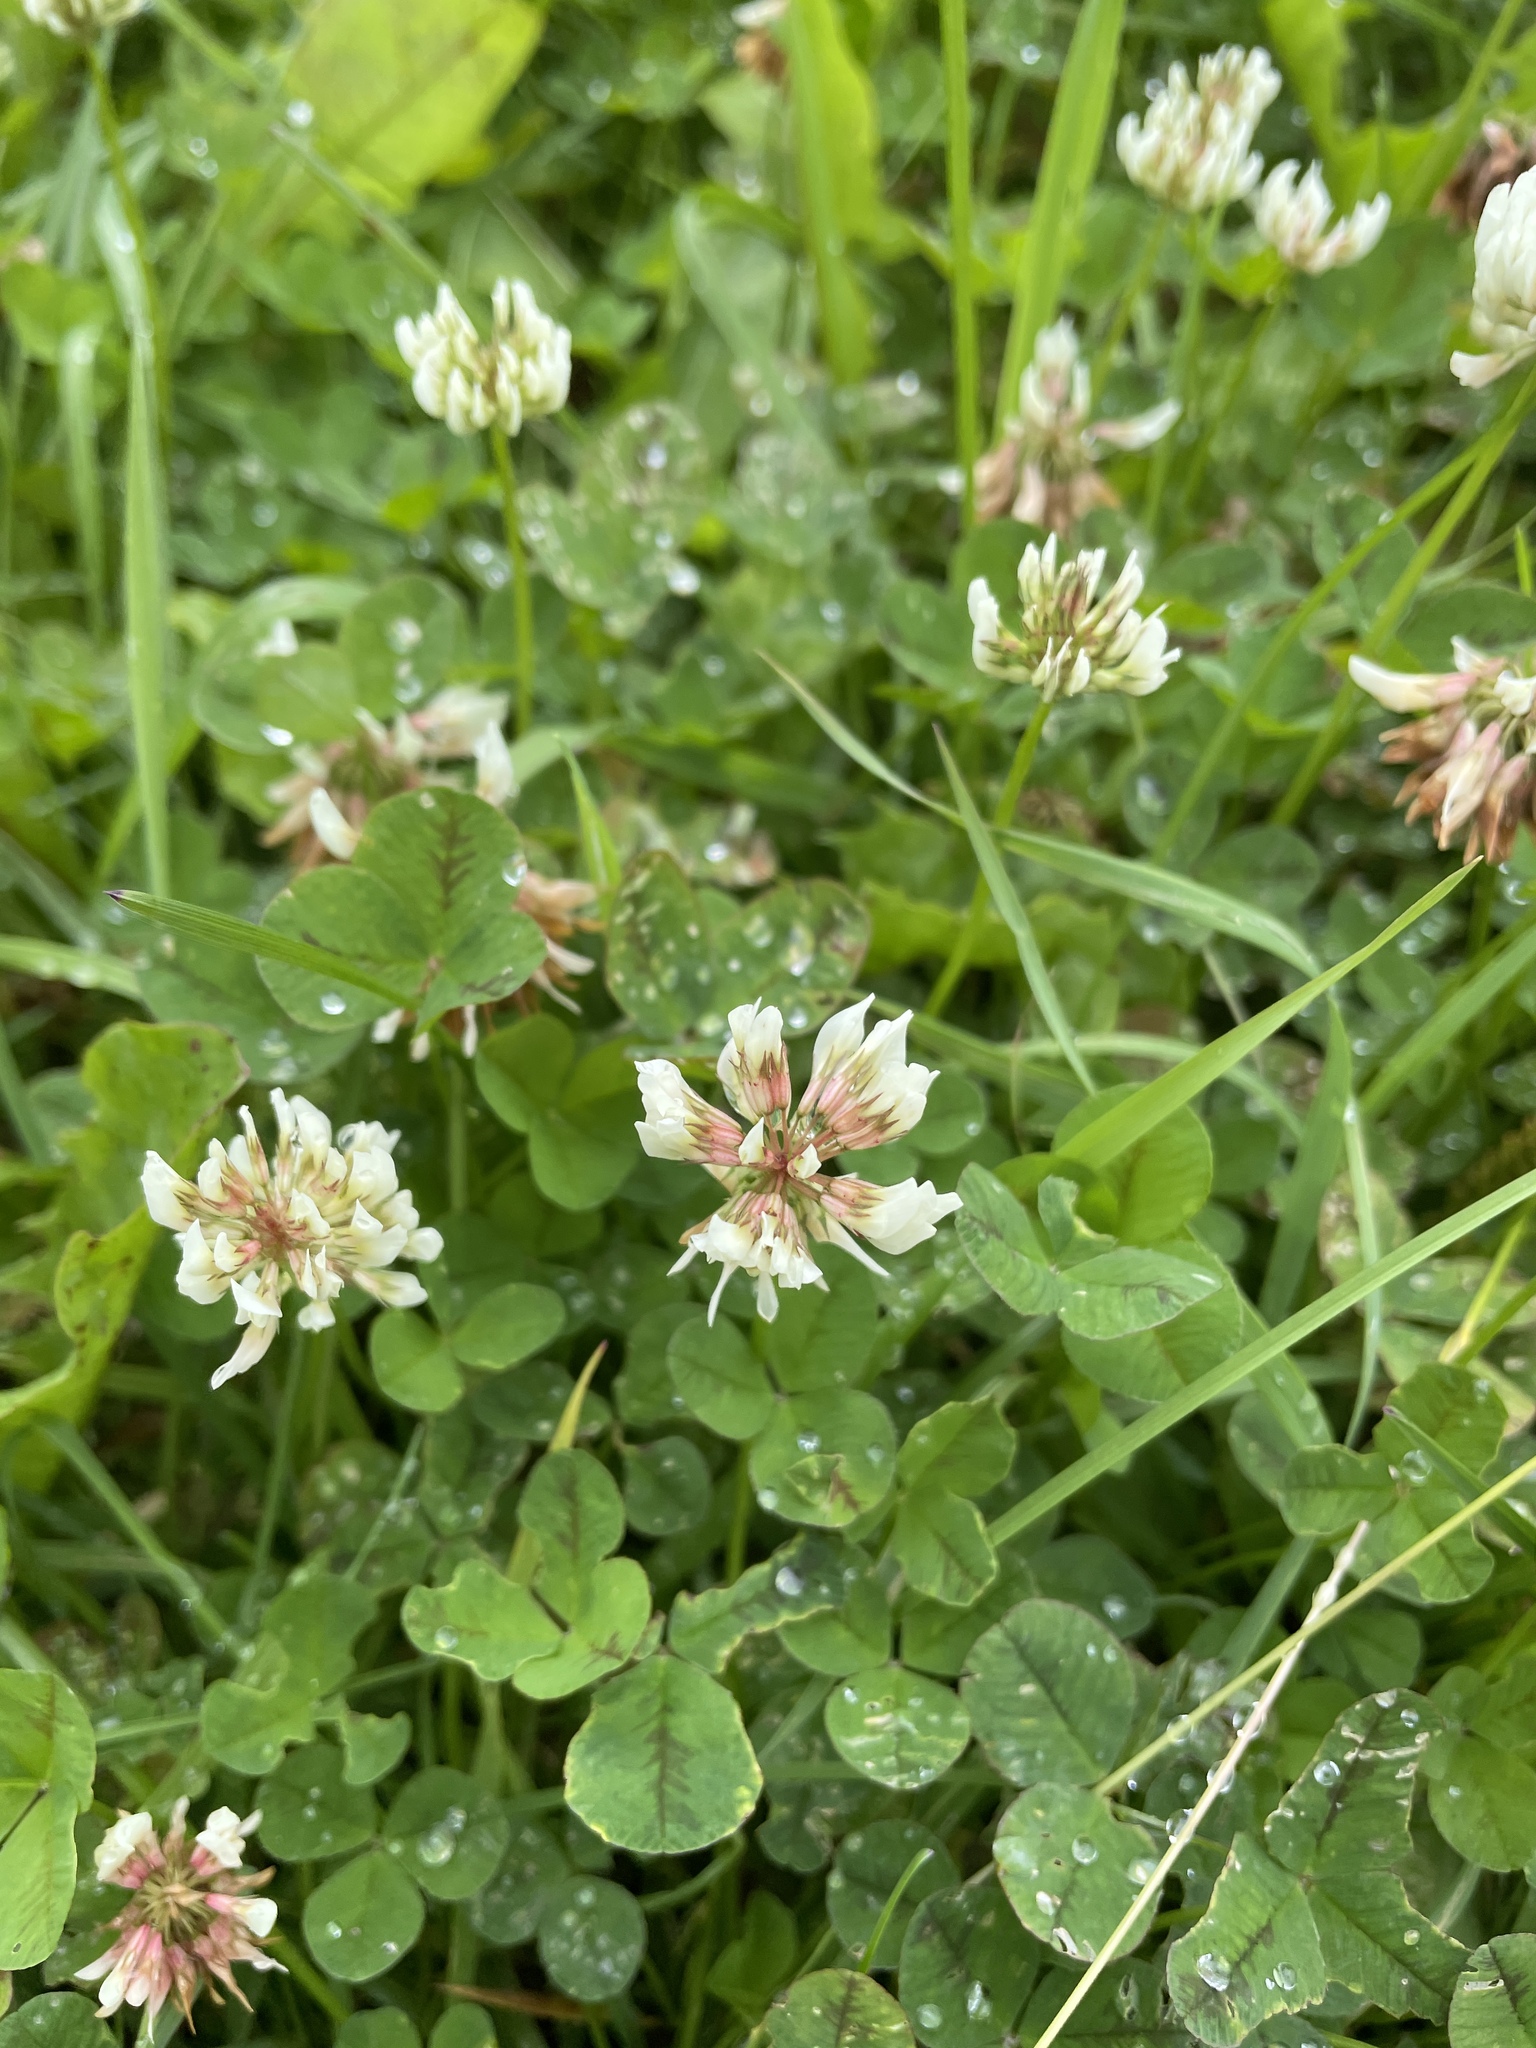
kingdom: Plantae
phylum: Tracheophyta
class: Magnoliopsida
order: Fabales
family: Fabaceae
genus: Trifolium
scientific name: Trifolium repens
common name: White clover
